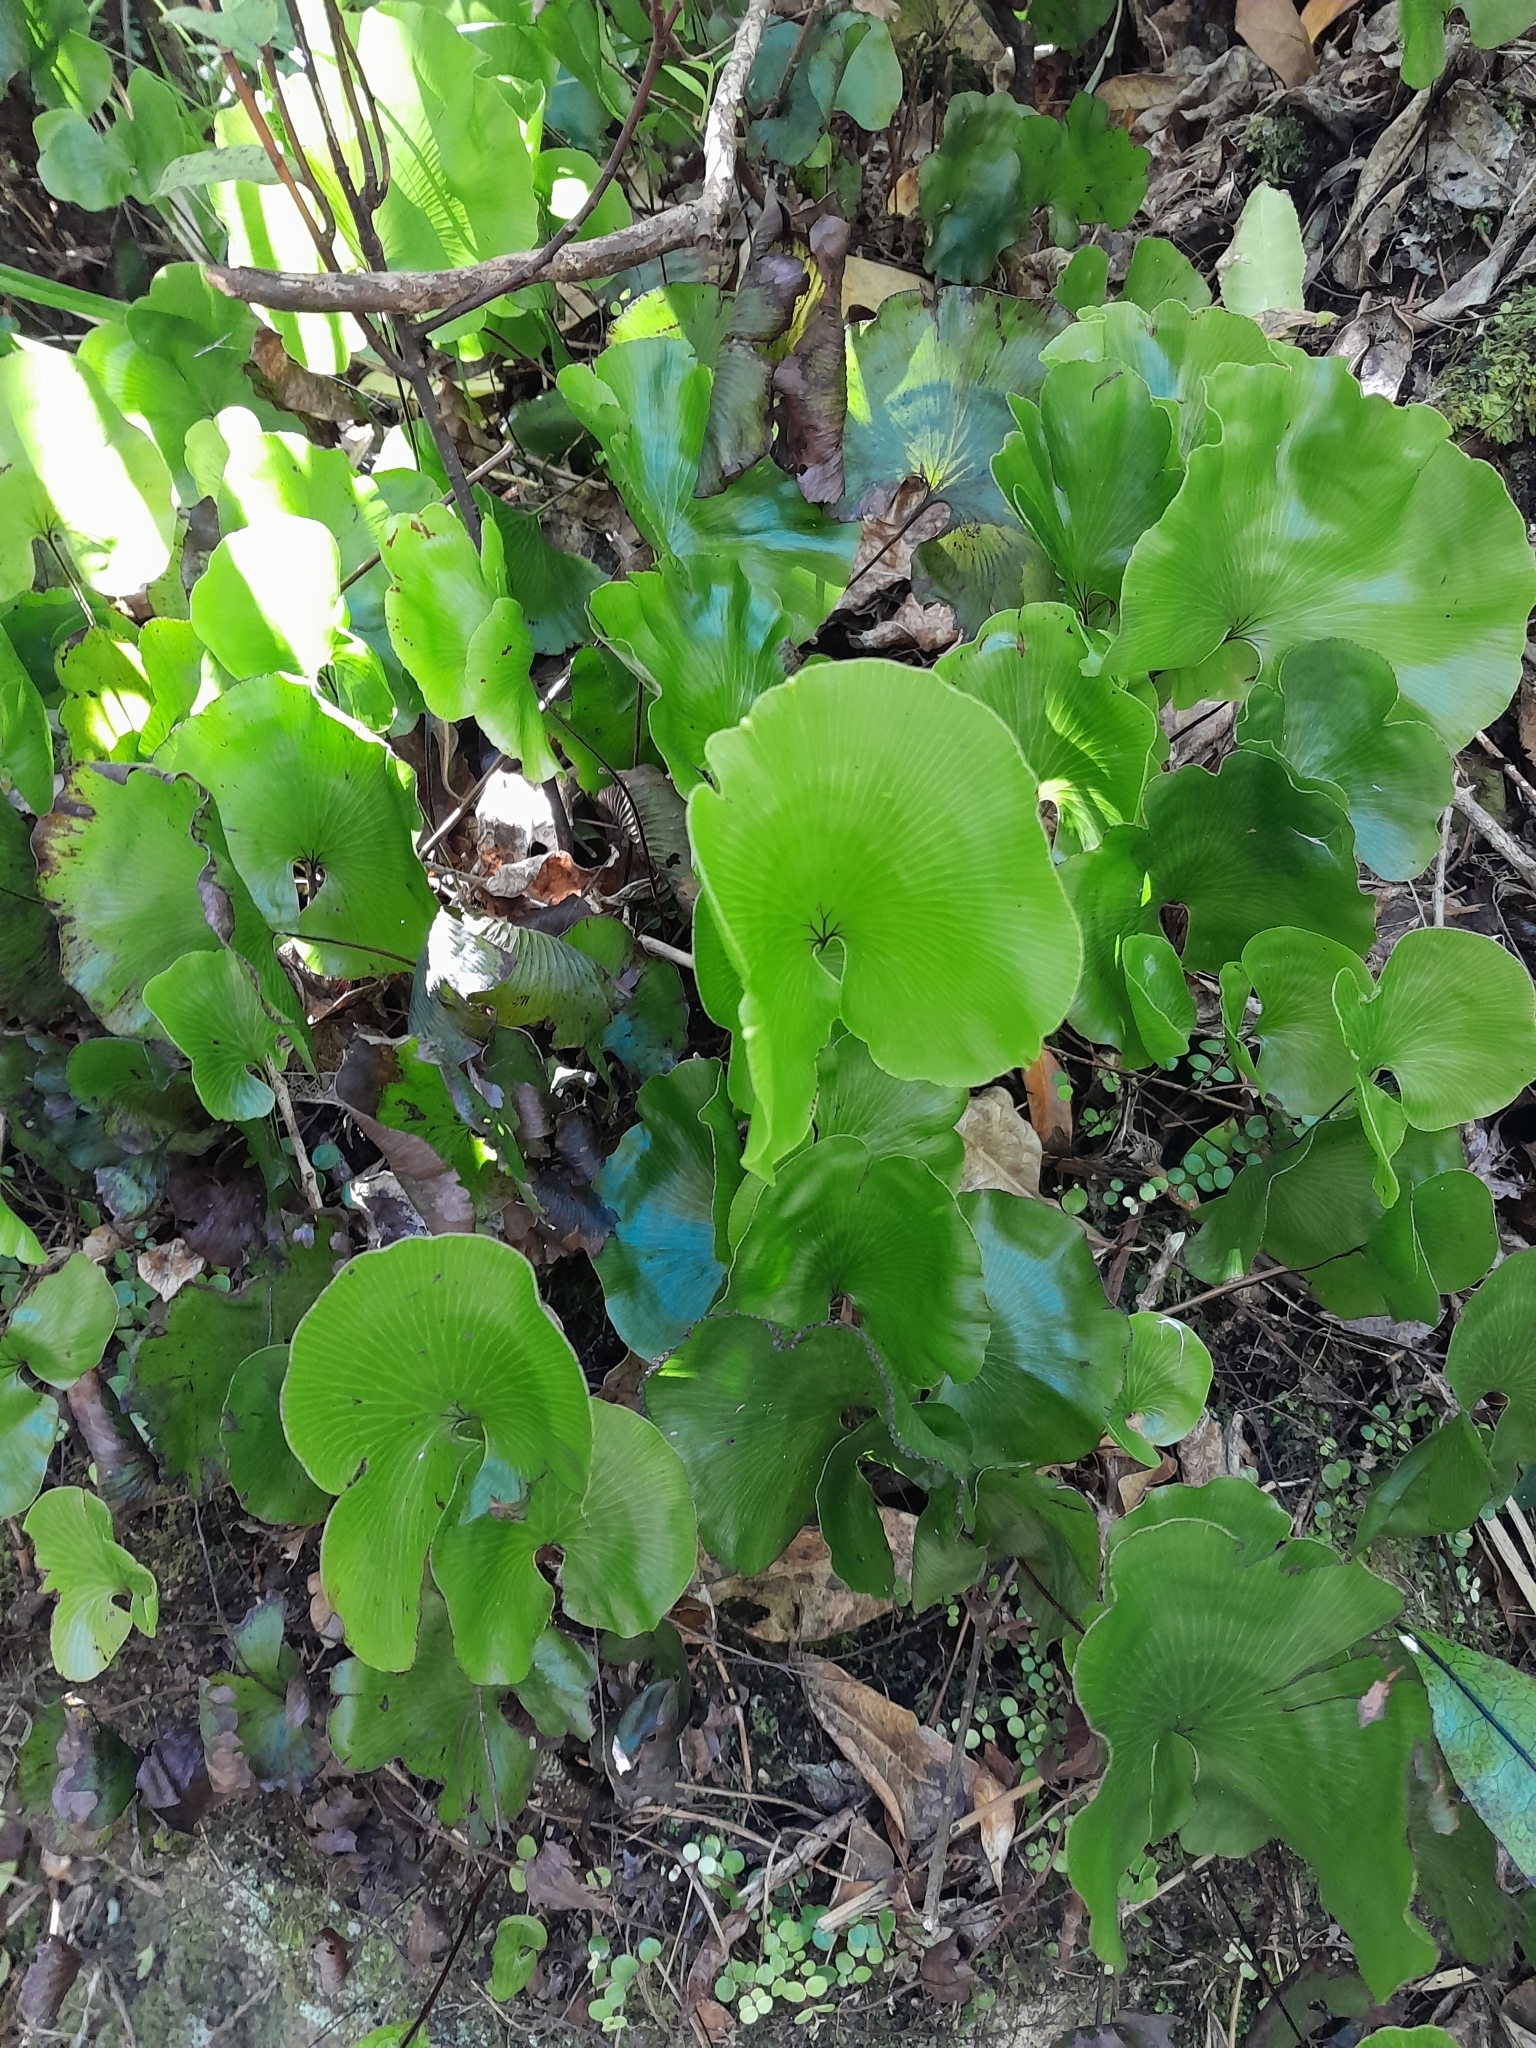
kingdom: Plantae
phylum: Tracheophyta
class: Polypodiopsida
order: Hymenophyllales
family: Hymenophyllaceae
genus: Hymenophyllum
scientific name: Hymenophyllum nephrophyllum
